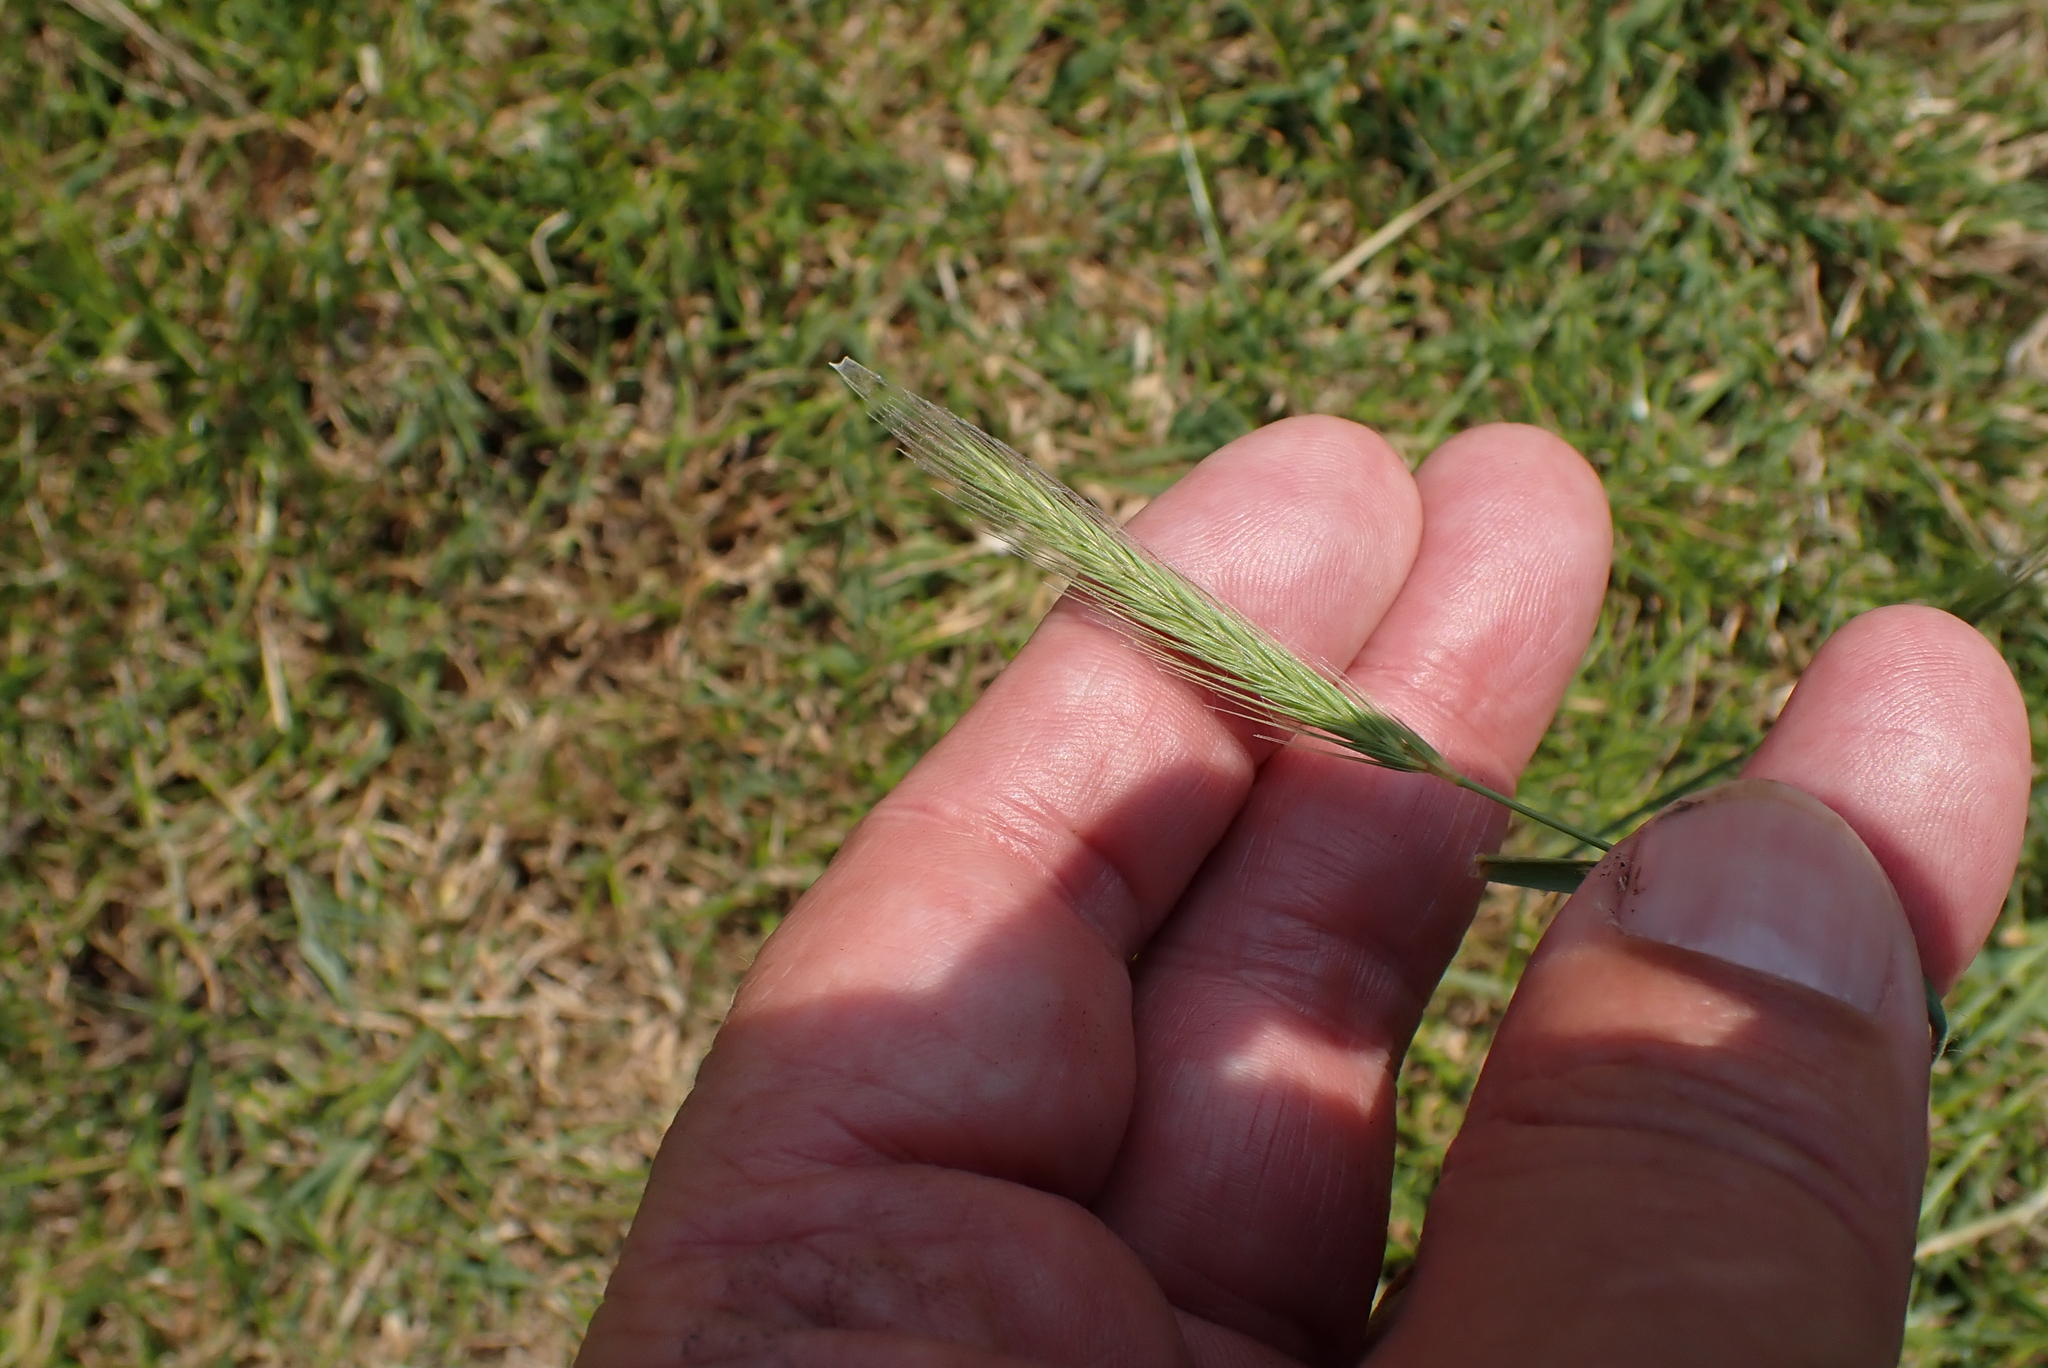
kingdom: Plantae
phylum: Tracheophyta
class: Liliopsida
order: Poales
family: Poaceae
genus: Hordeum
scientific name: Hordeum secalinum
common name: Meadow barley
